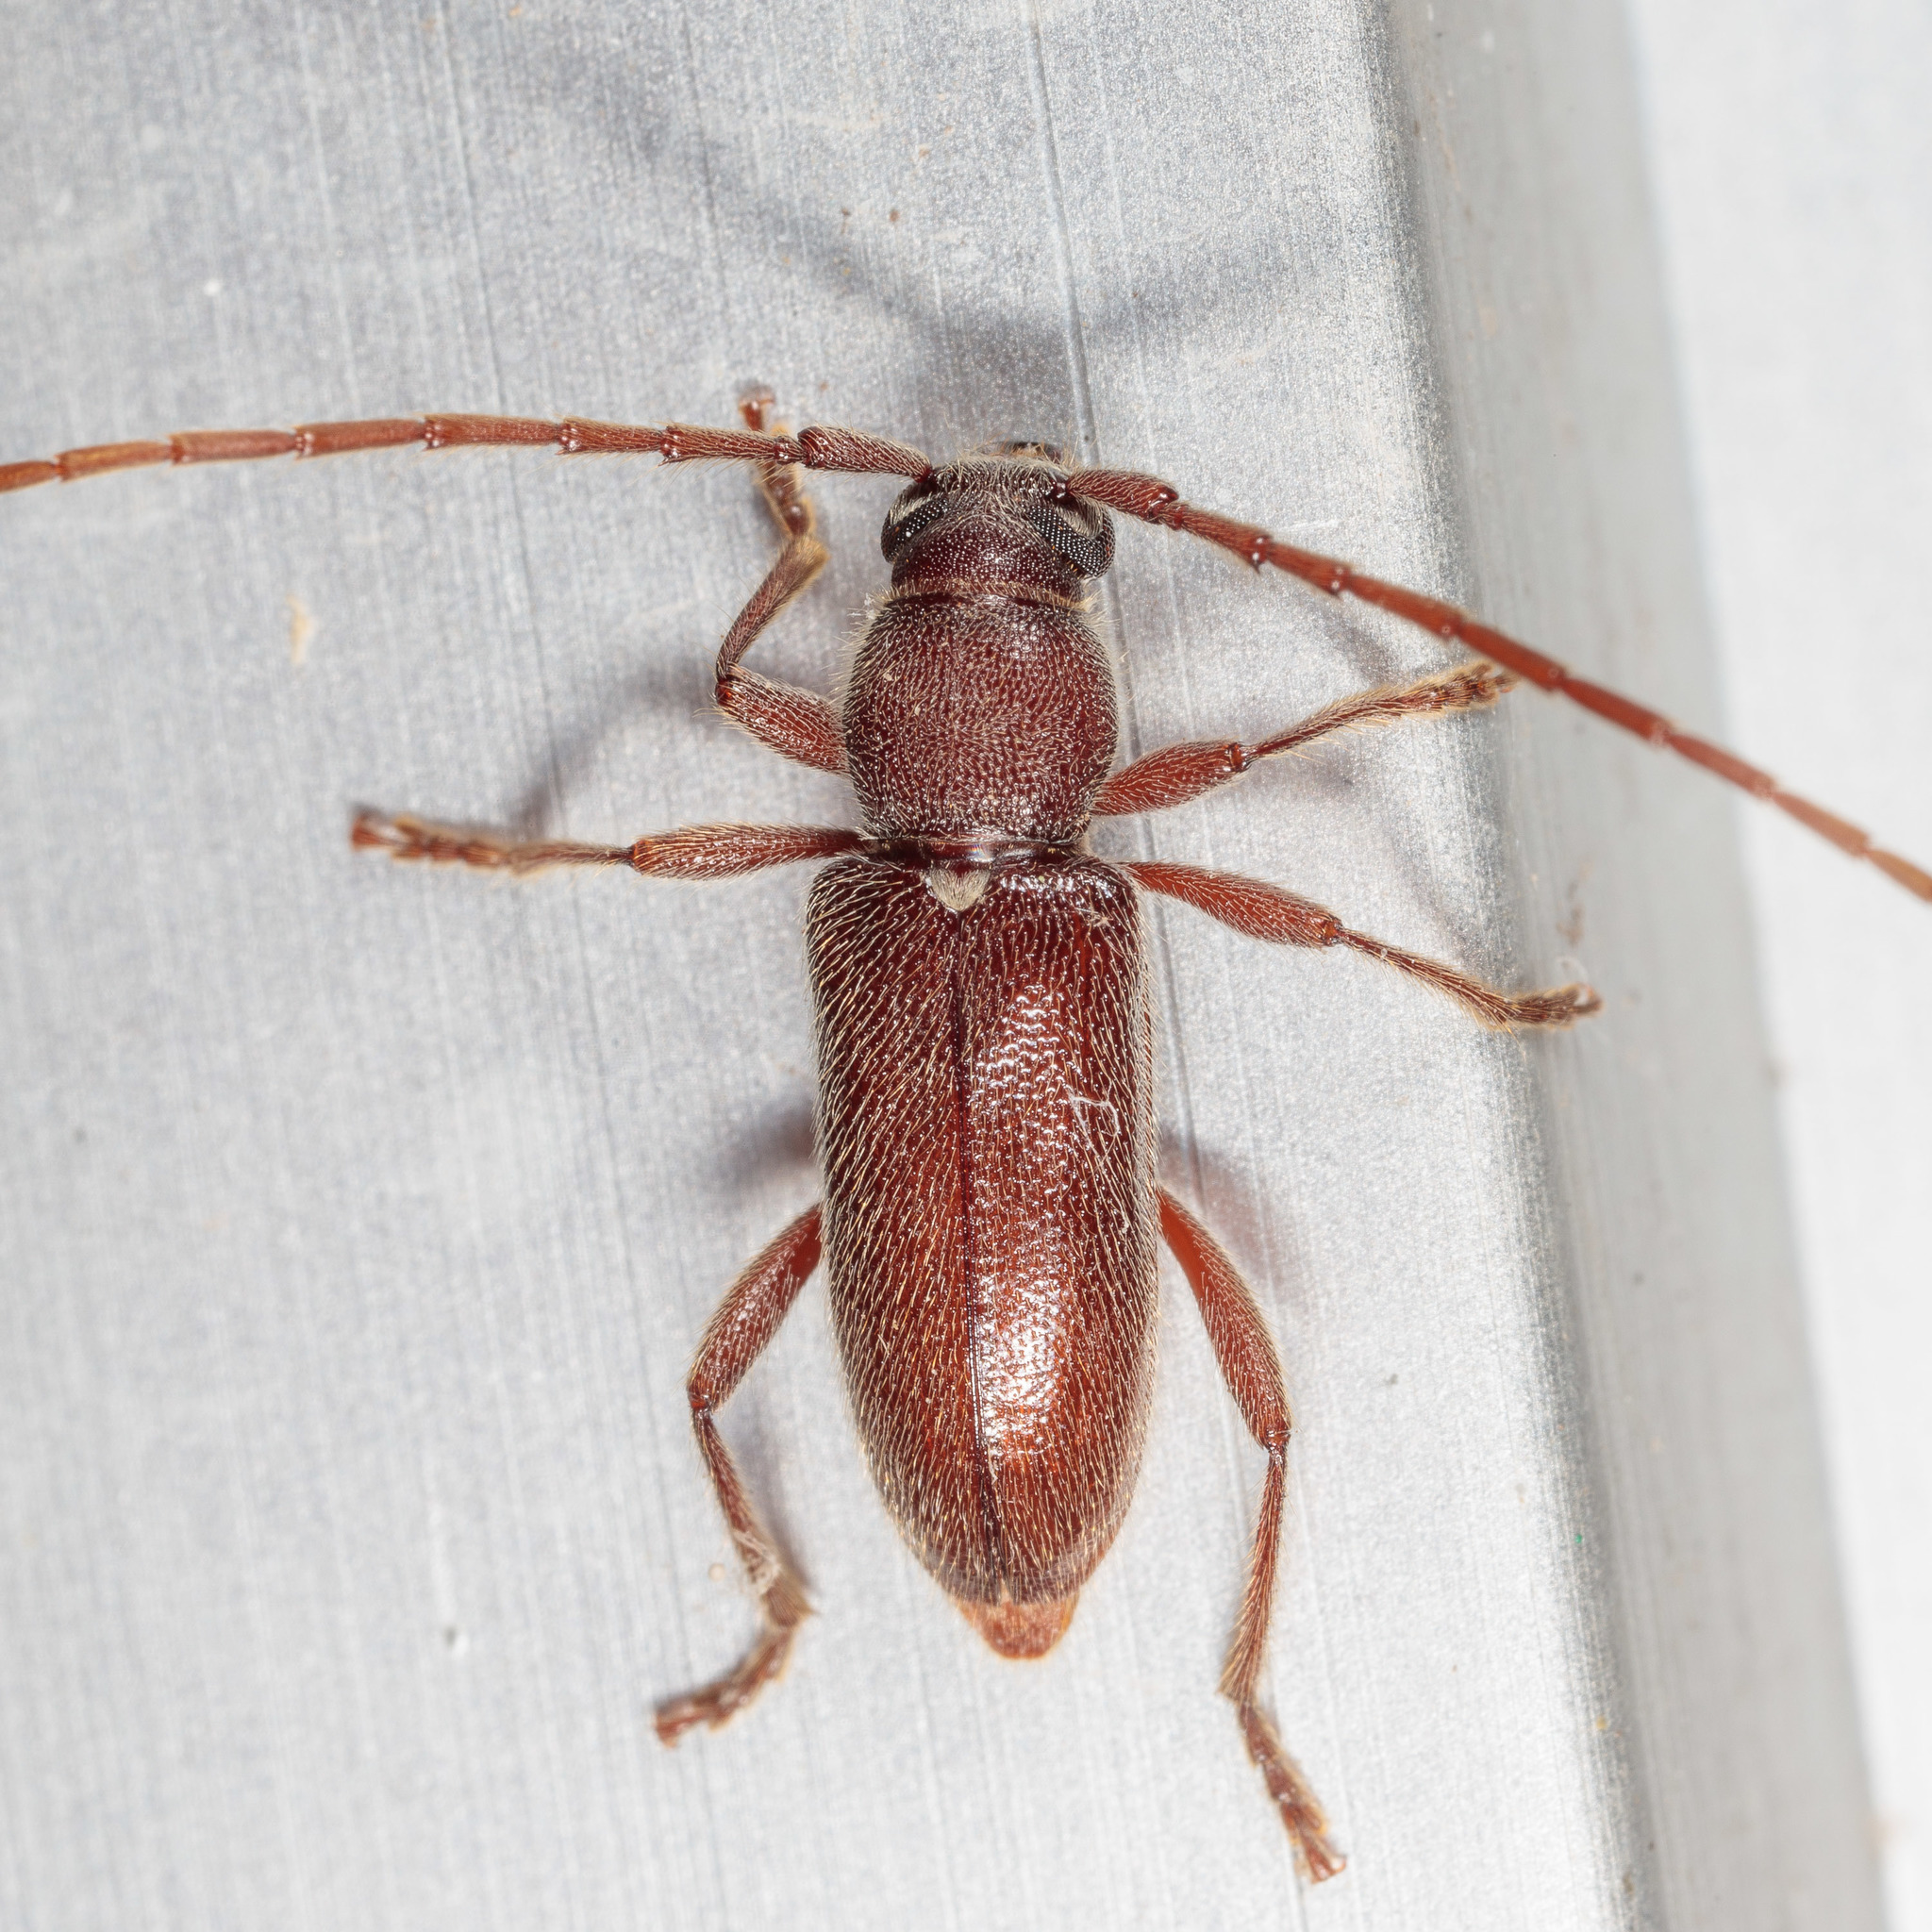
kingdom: Animalia
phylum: Arthropoda
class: Insecta
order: Coleoptera
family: Cerambycidae
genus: Anelaphus
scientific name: Anelaphus moestus
